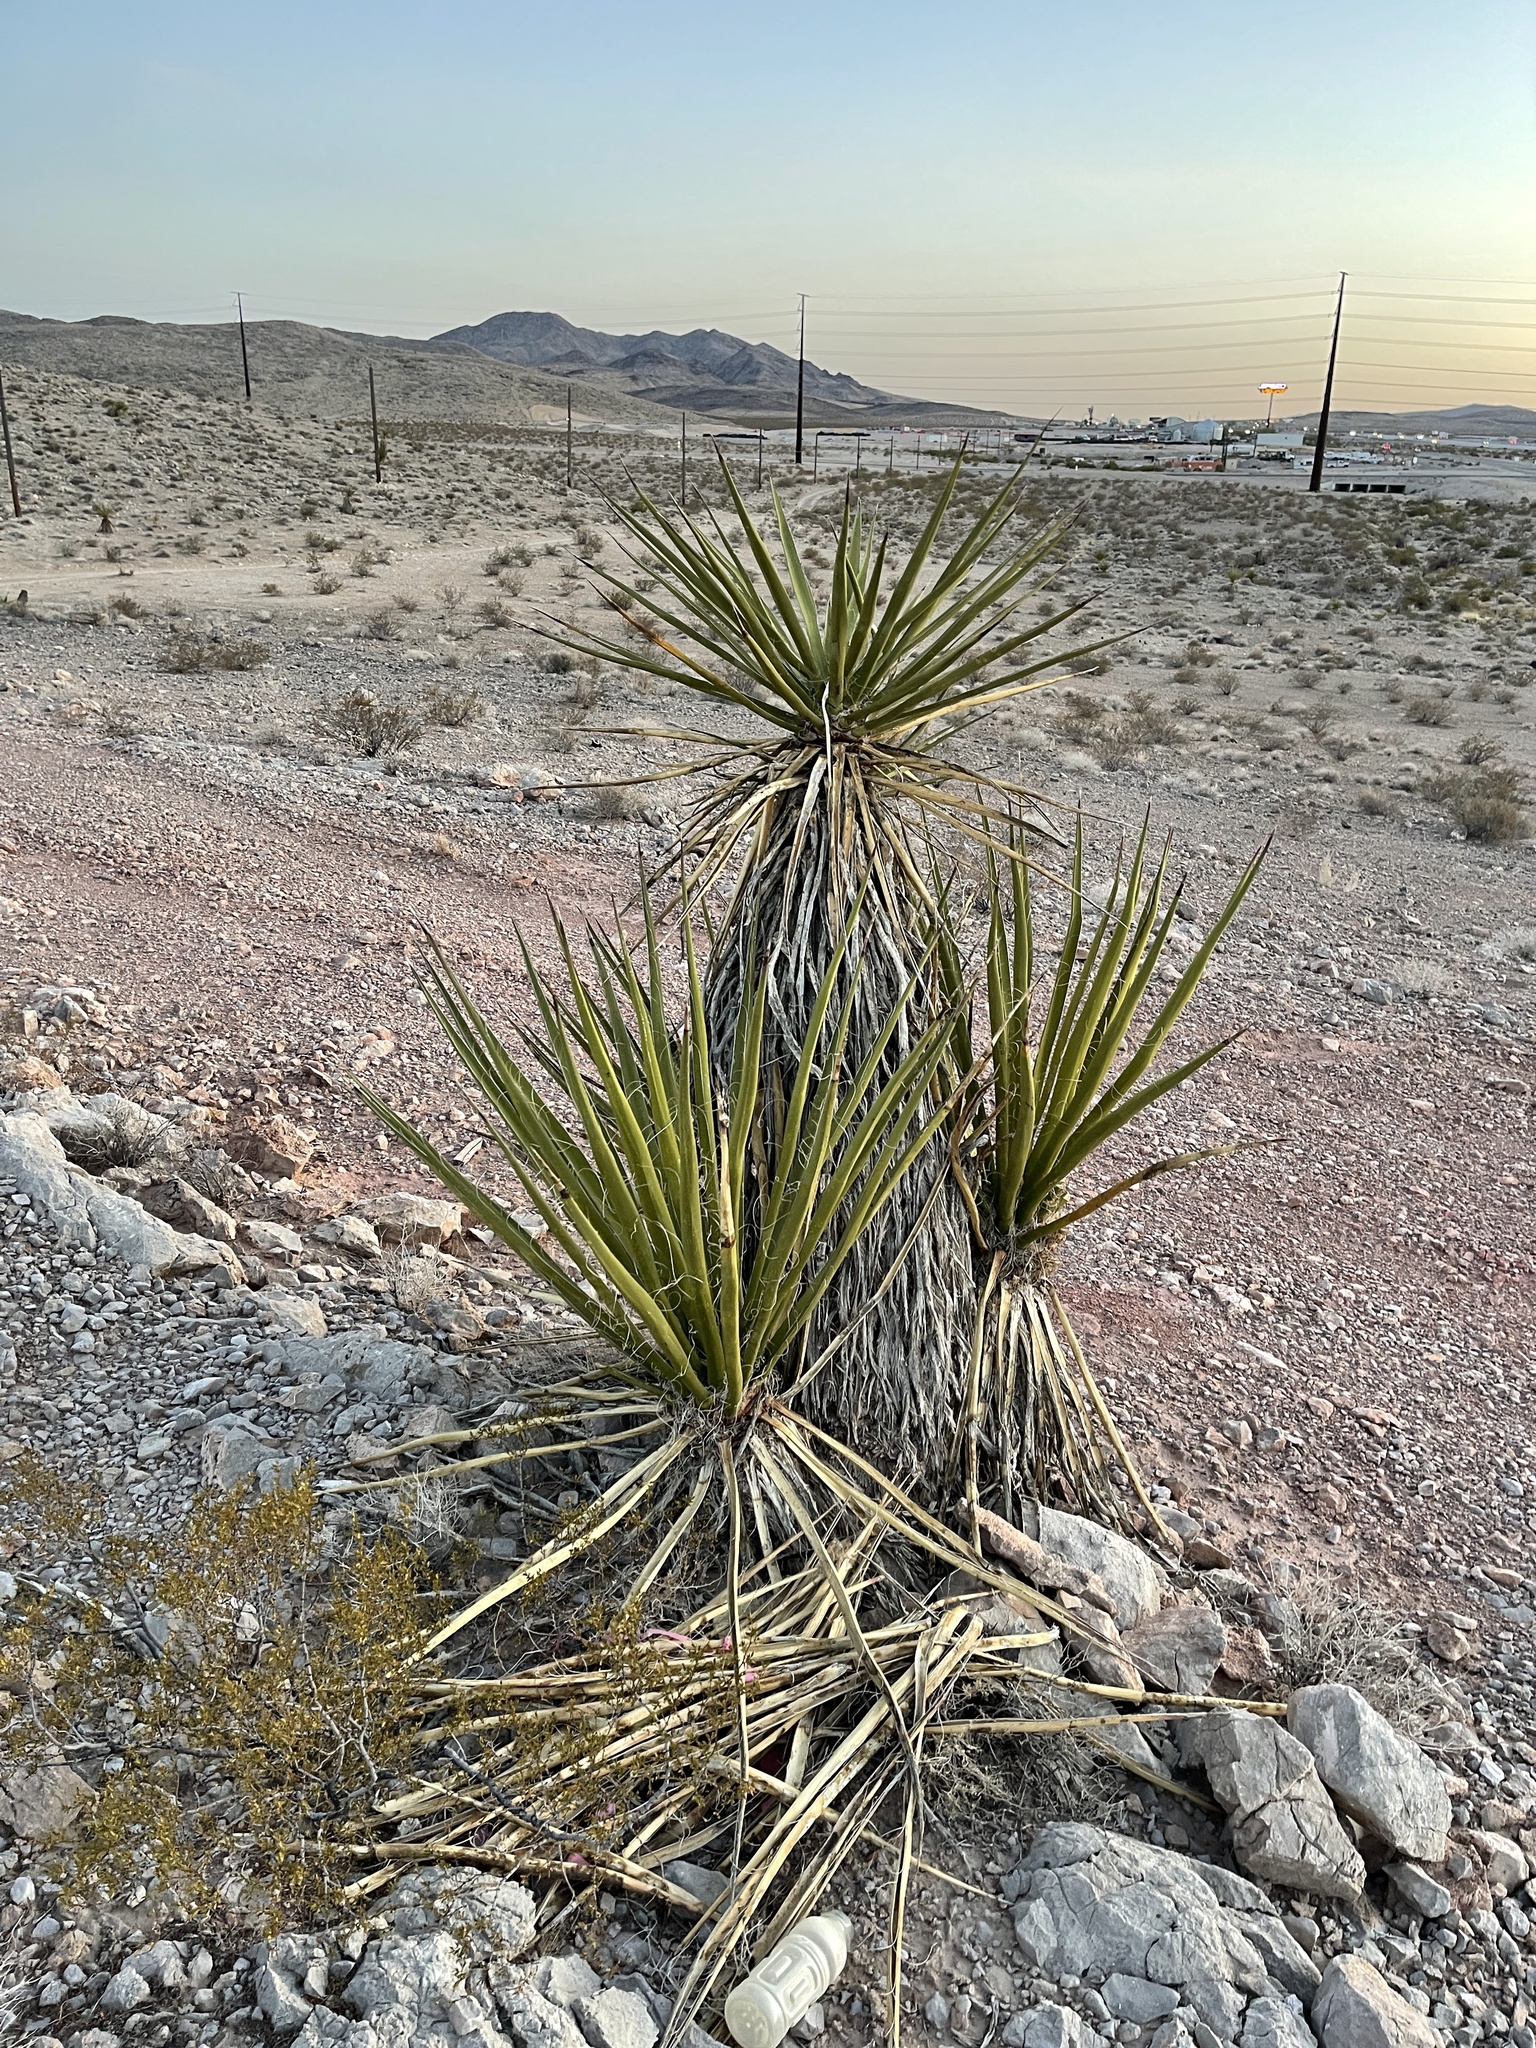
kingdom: Plantae
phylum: Tracheophyta
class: Liliopsida
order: Asparagales
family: Asparagaceae
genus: Yucca
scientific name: Yucca schidigera
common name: Mojave yucca
